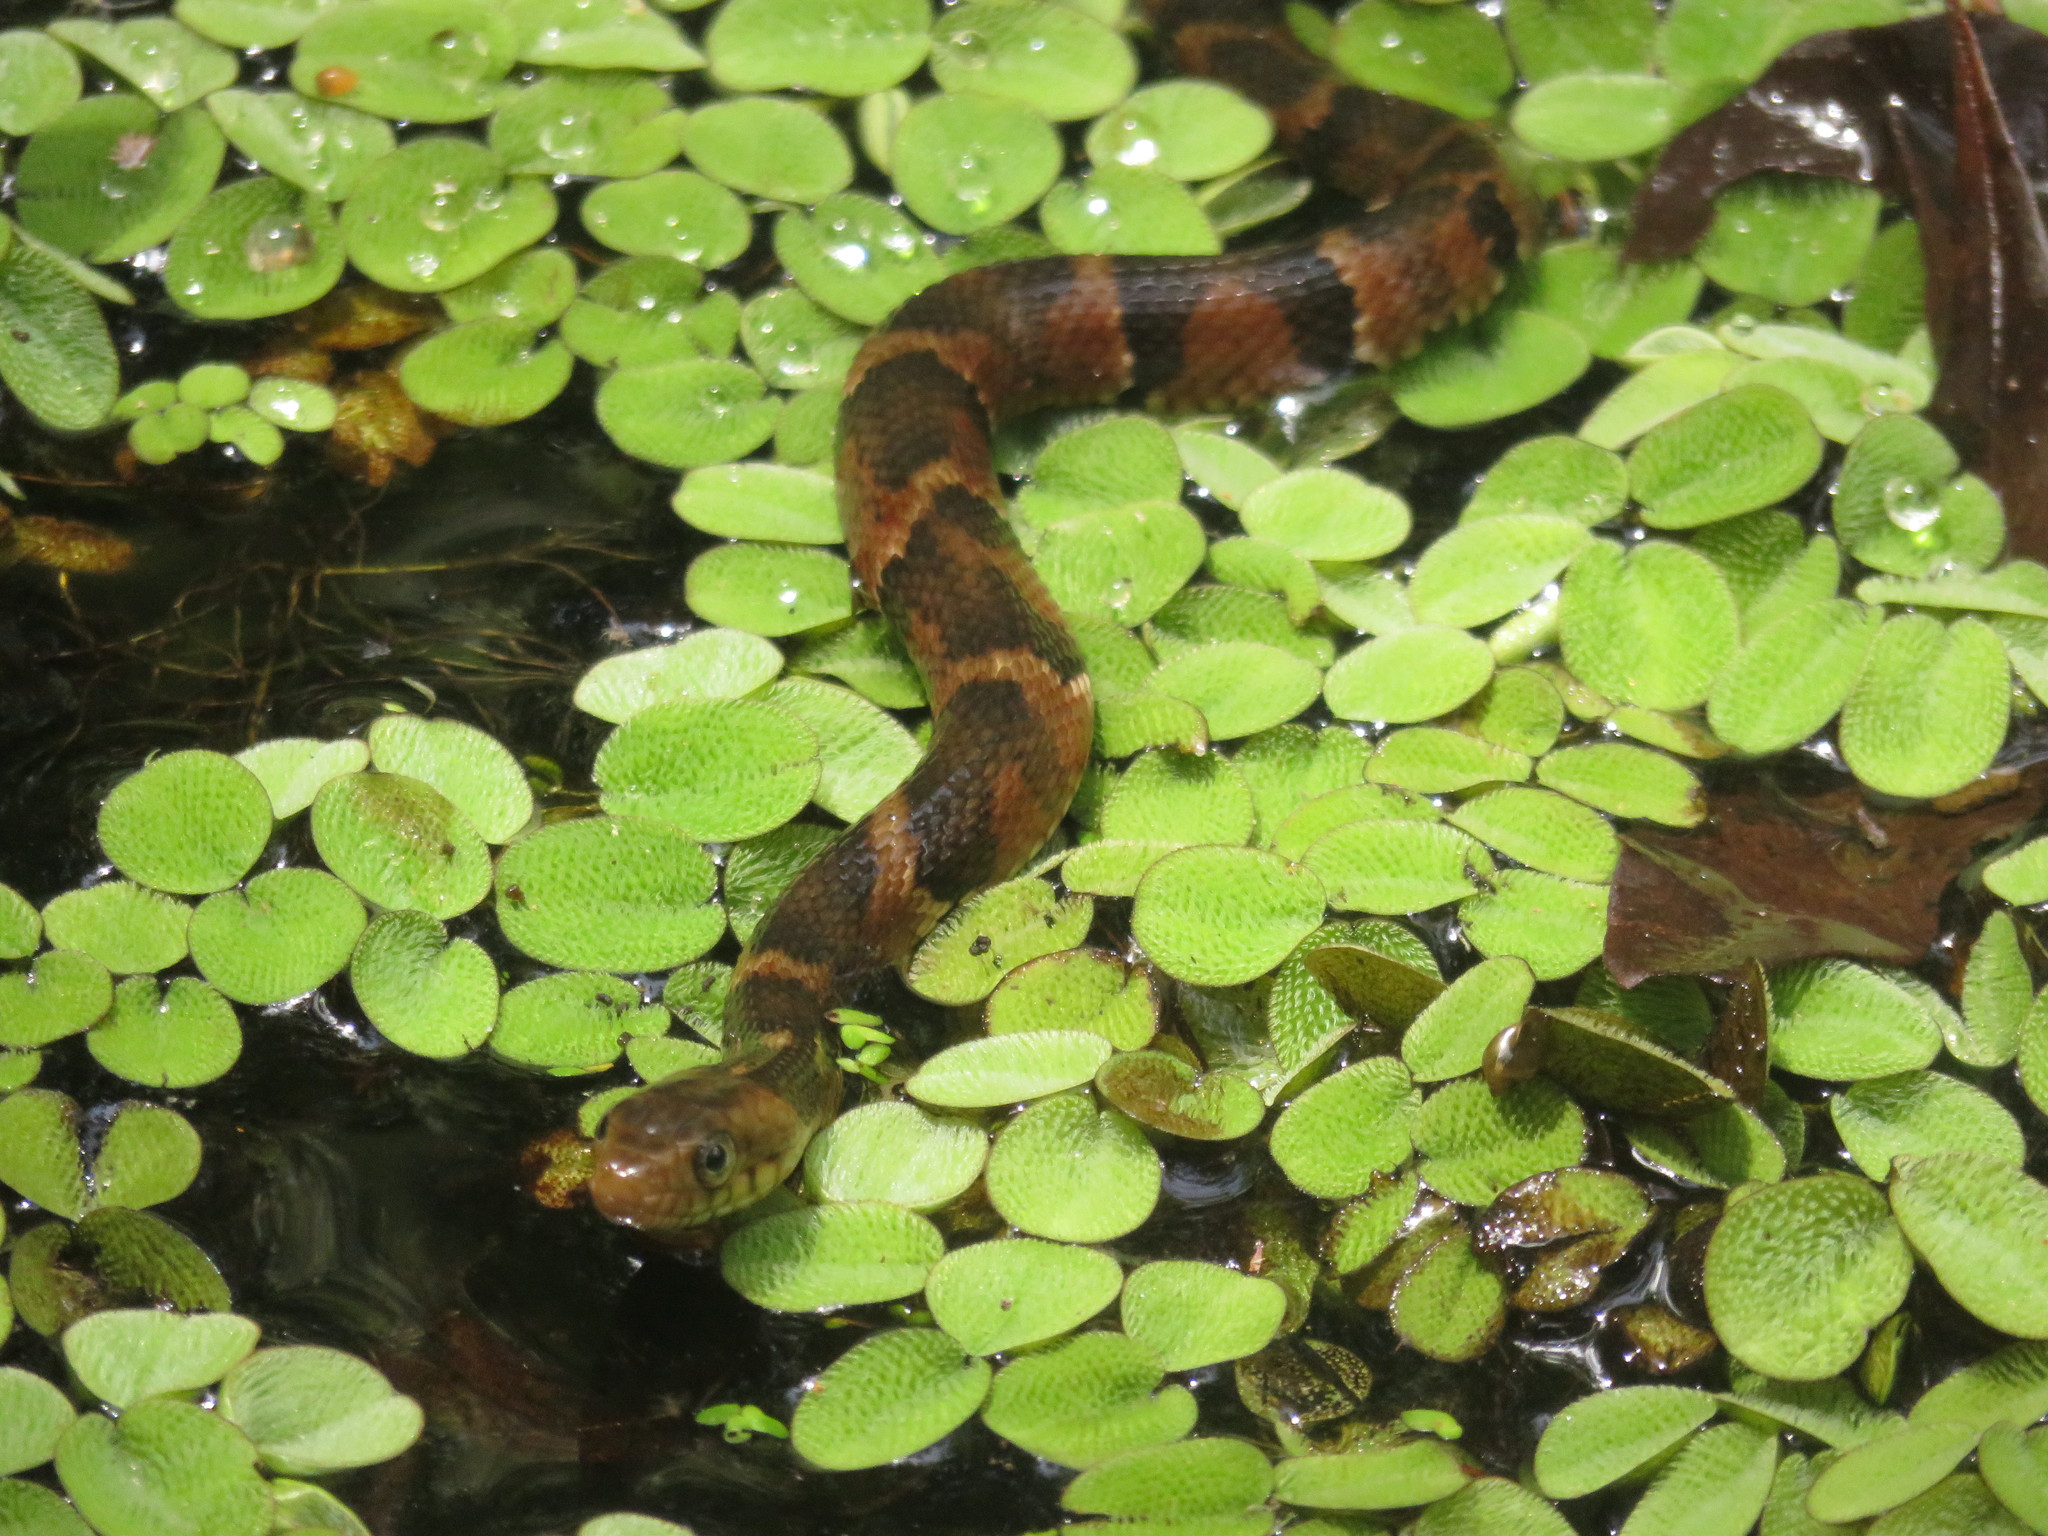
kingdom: Animalia
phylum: Chordata
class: Squamata
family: Colubridae
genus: Nerodia
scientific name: Nerodia fasciata
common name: Southern water snake
